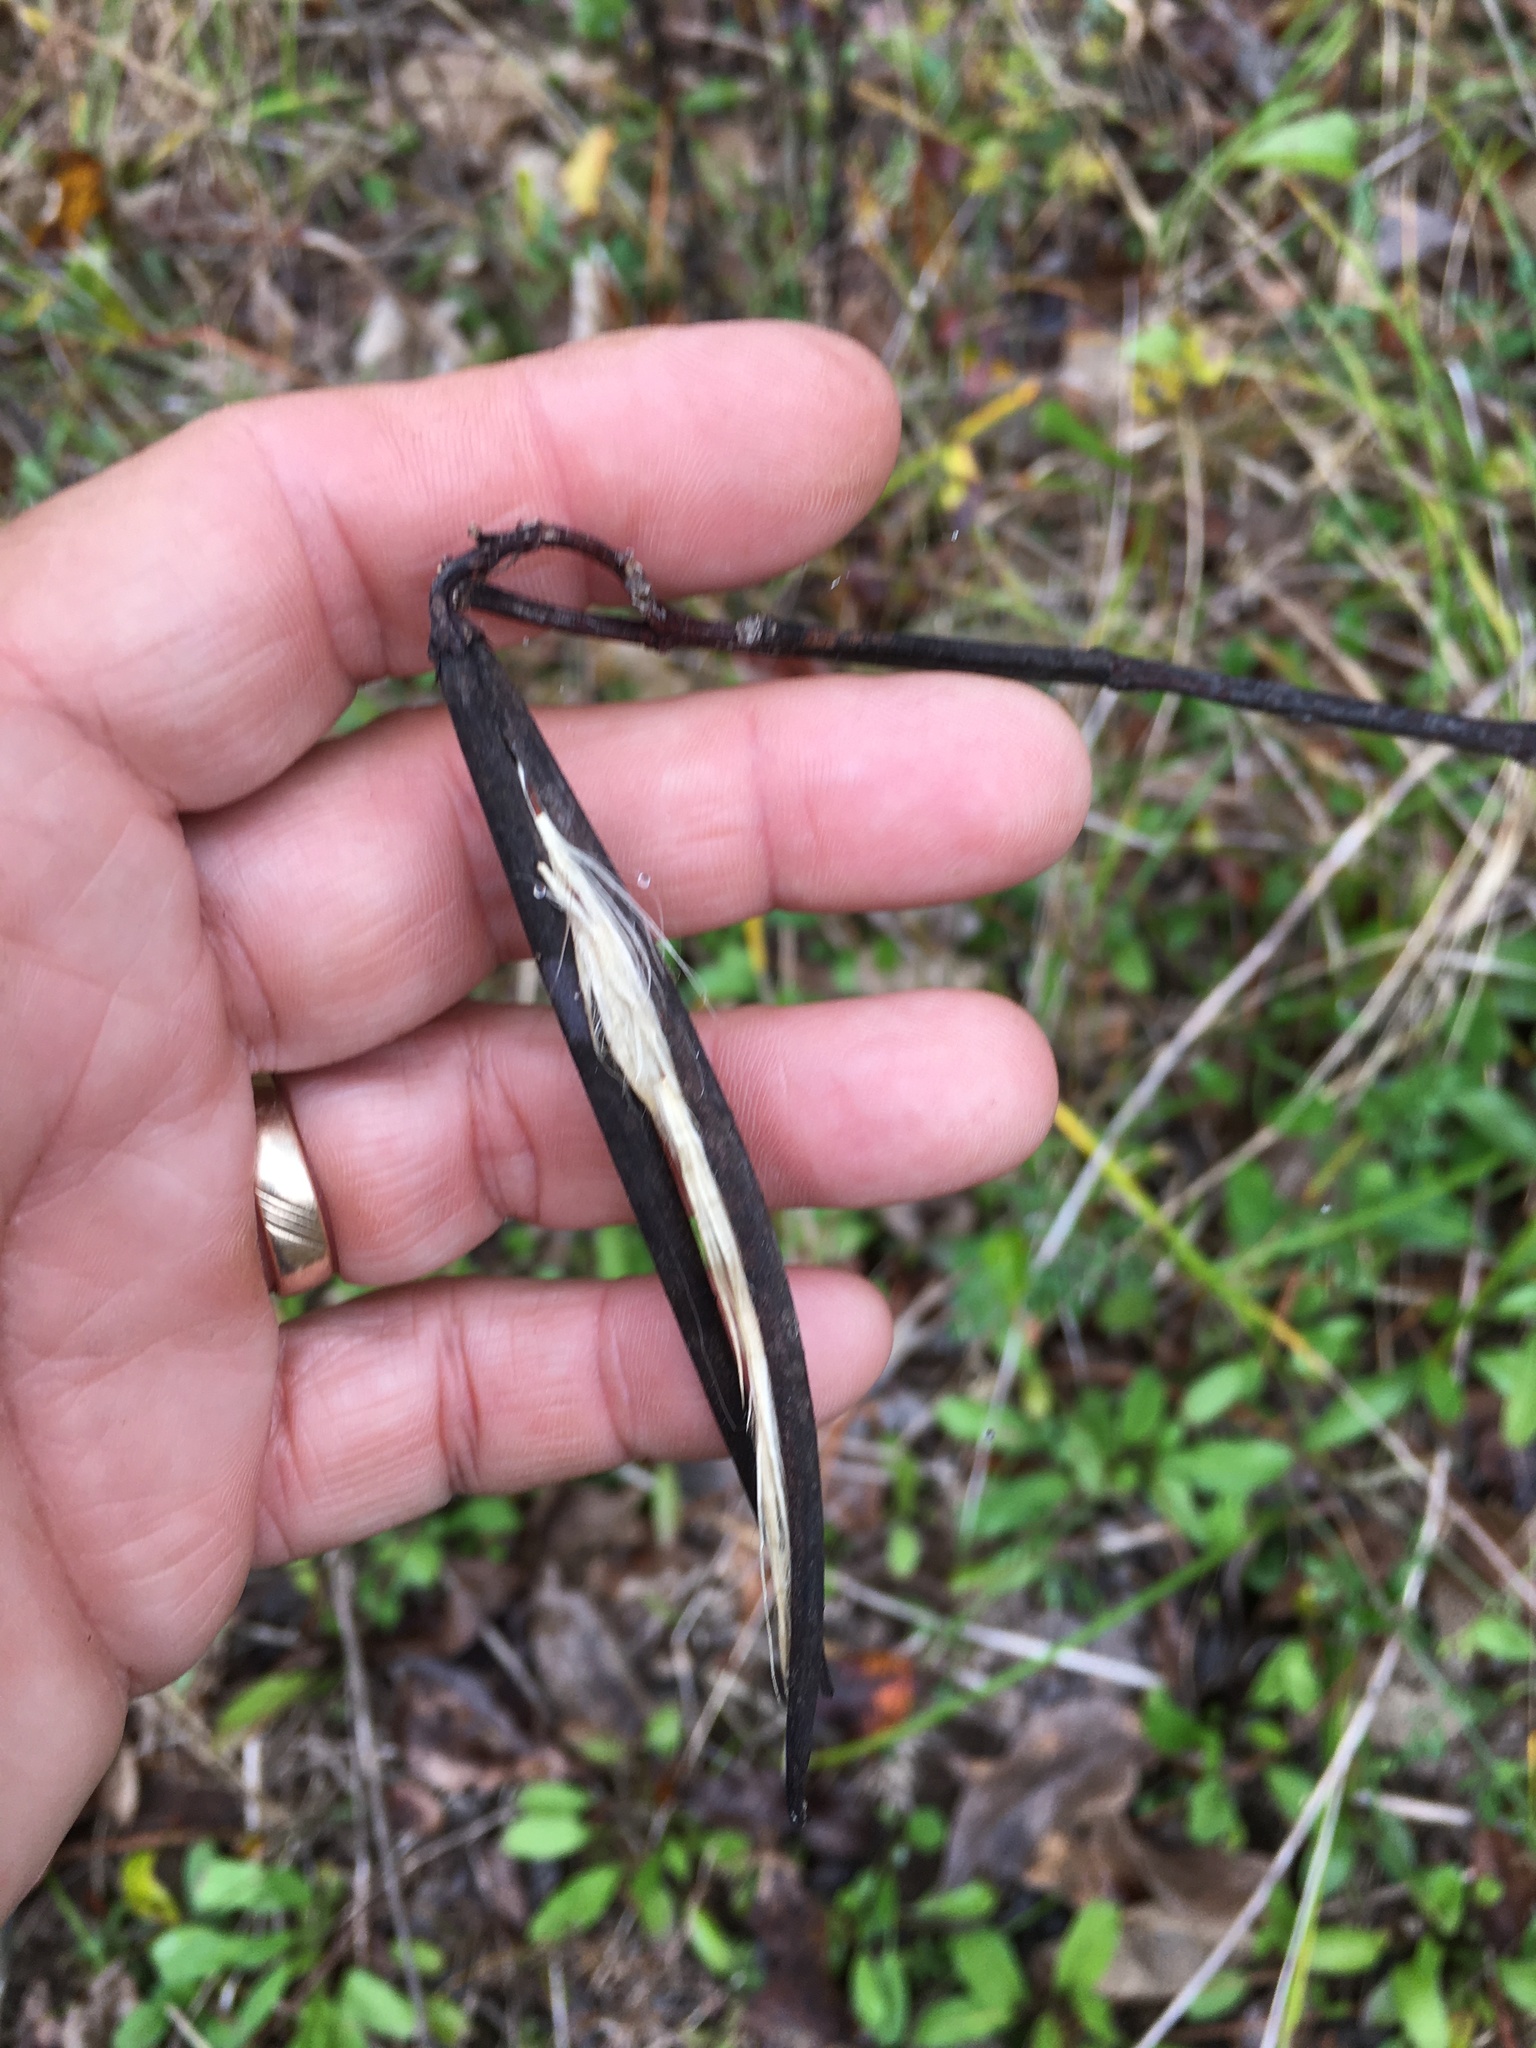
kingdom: Plantae
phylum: Tracheophyta
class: Magnoliopsida
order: Gentianales
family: Apocynaceae
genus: Apocynum
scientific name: Apocynum cannabinum
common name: Hemp dogbane
